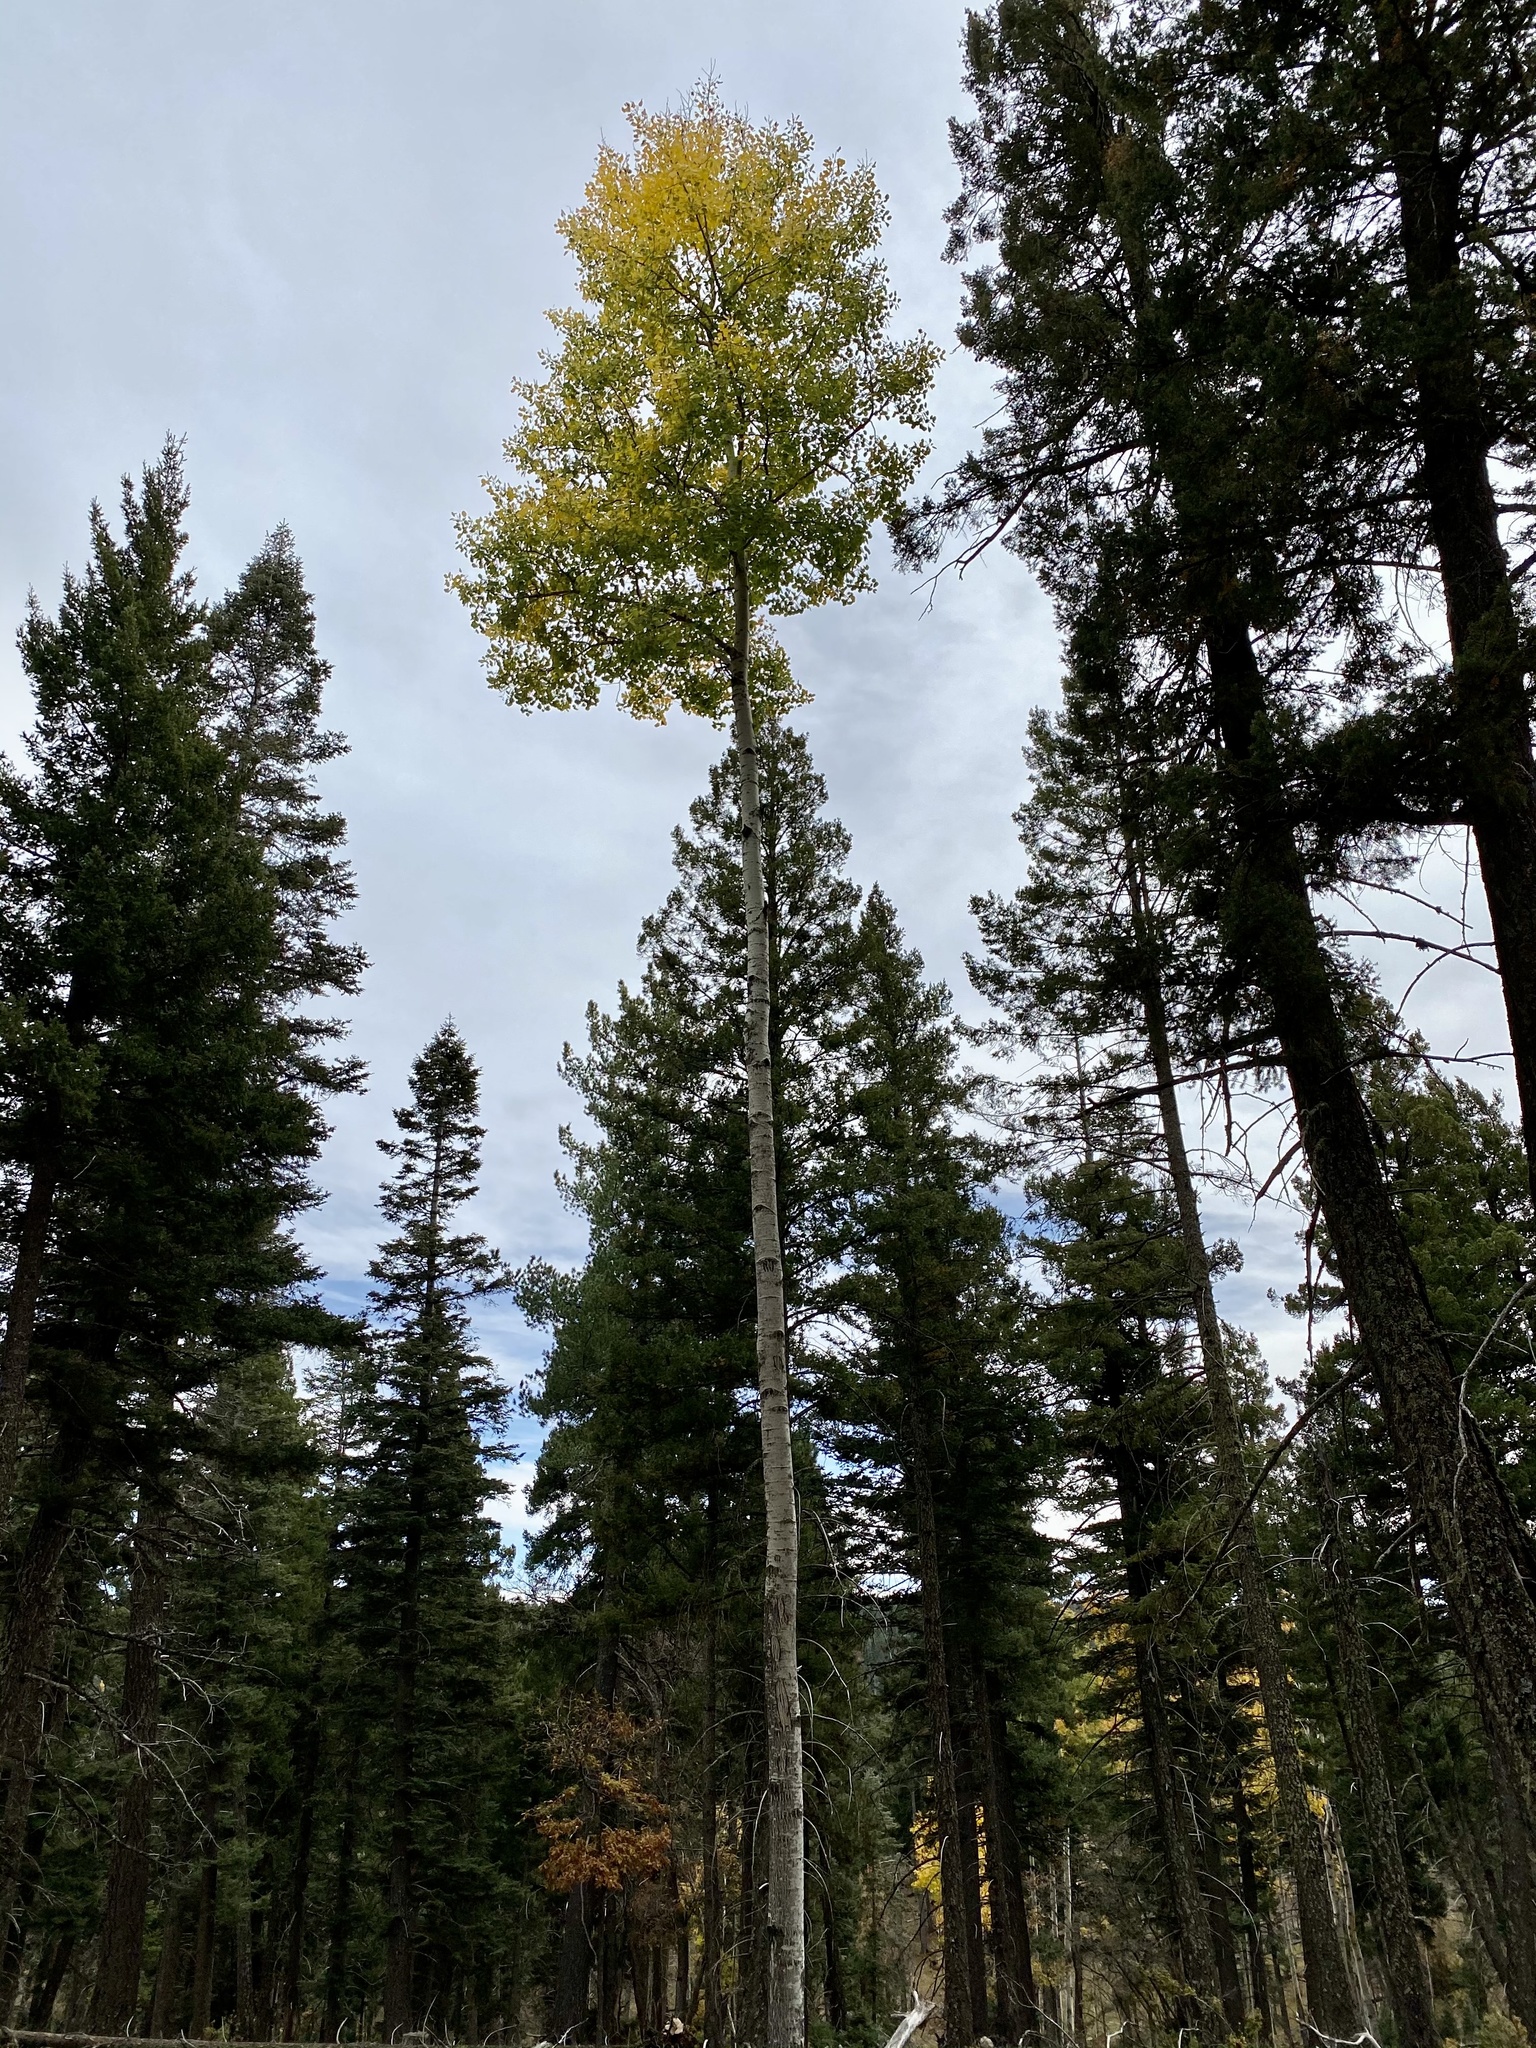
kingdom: Plantae
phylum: Tracheophyta
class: Magnoliopsida
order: Malpighiales
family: Salicaceae
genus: Populus
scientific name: Populus tremuloides
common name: Quaking aspen
